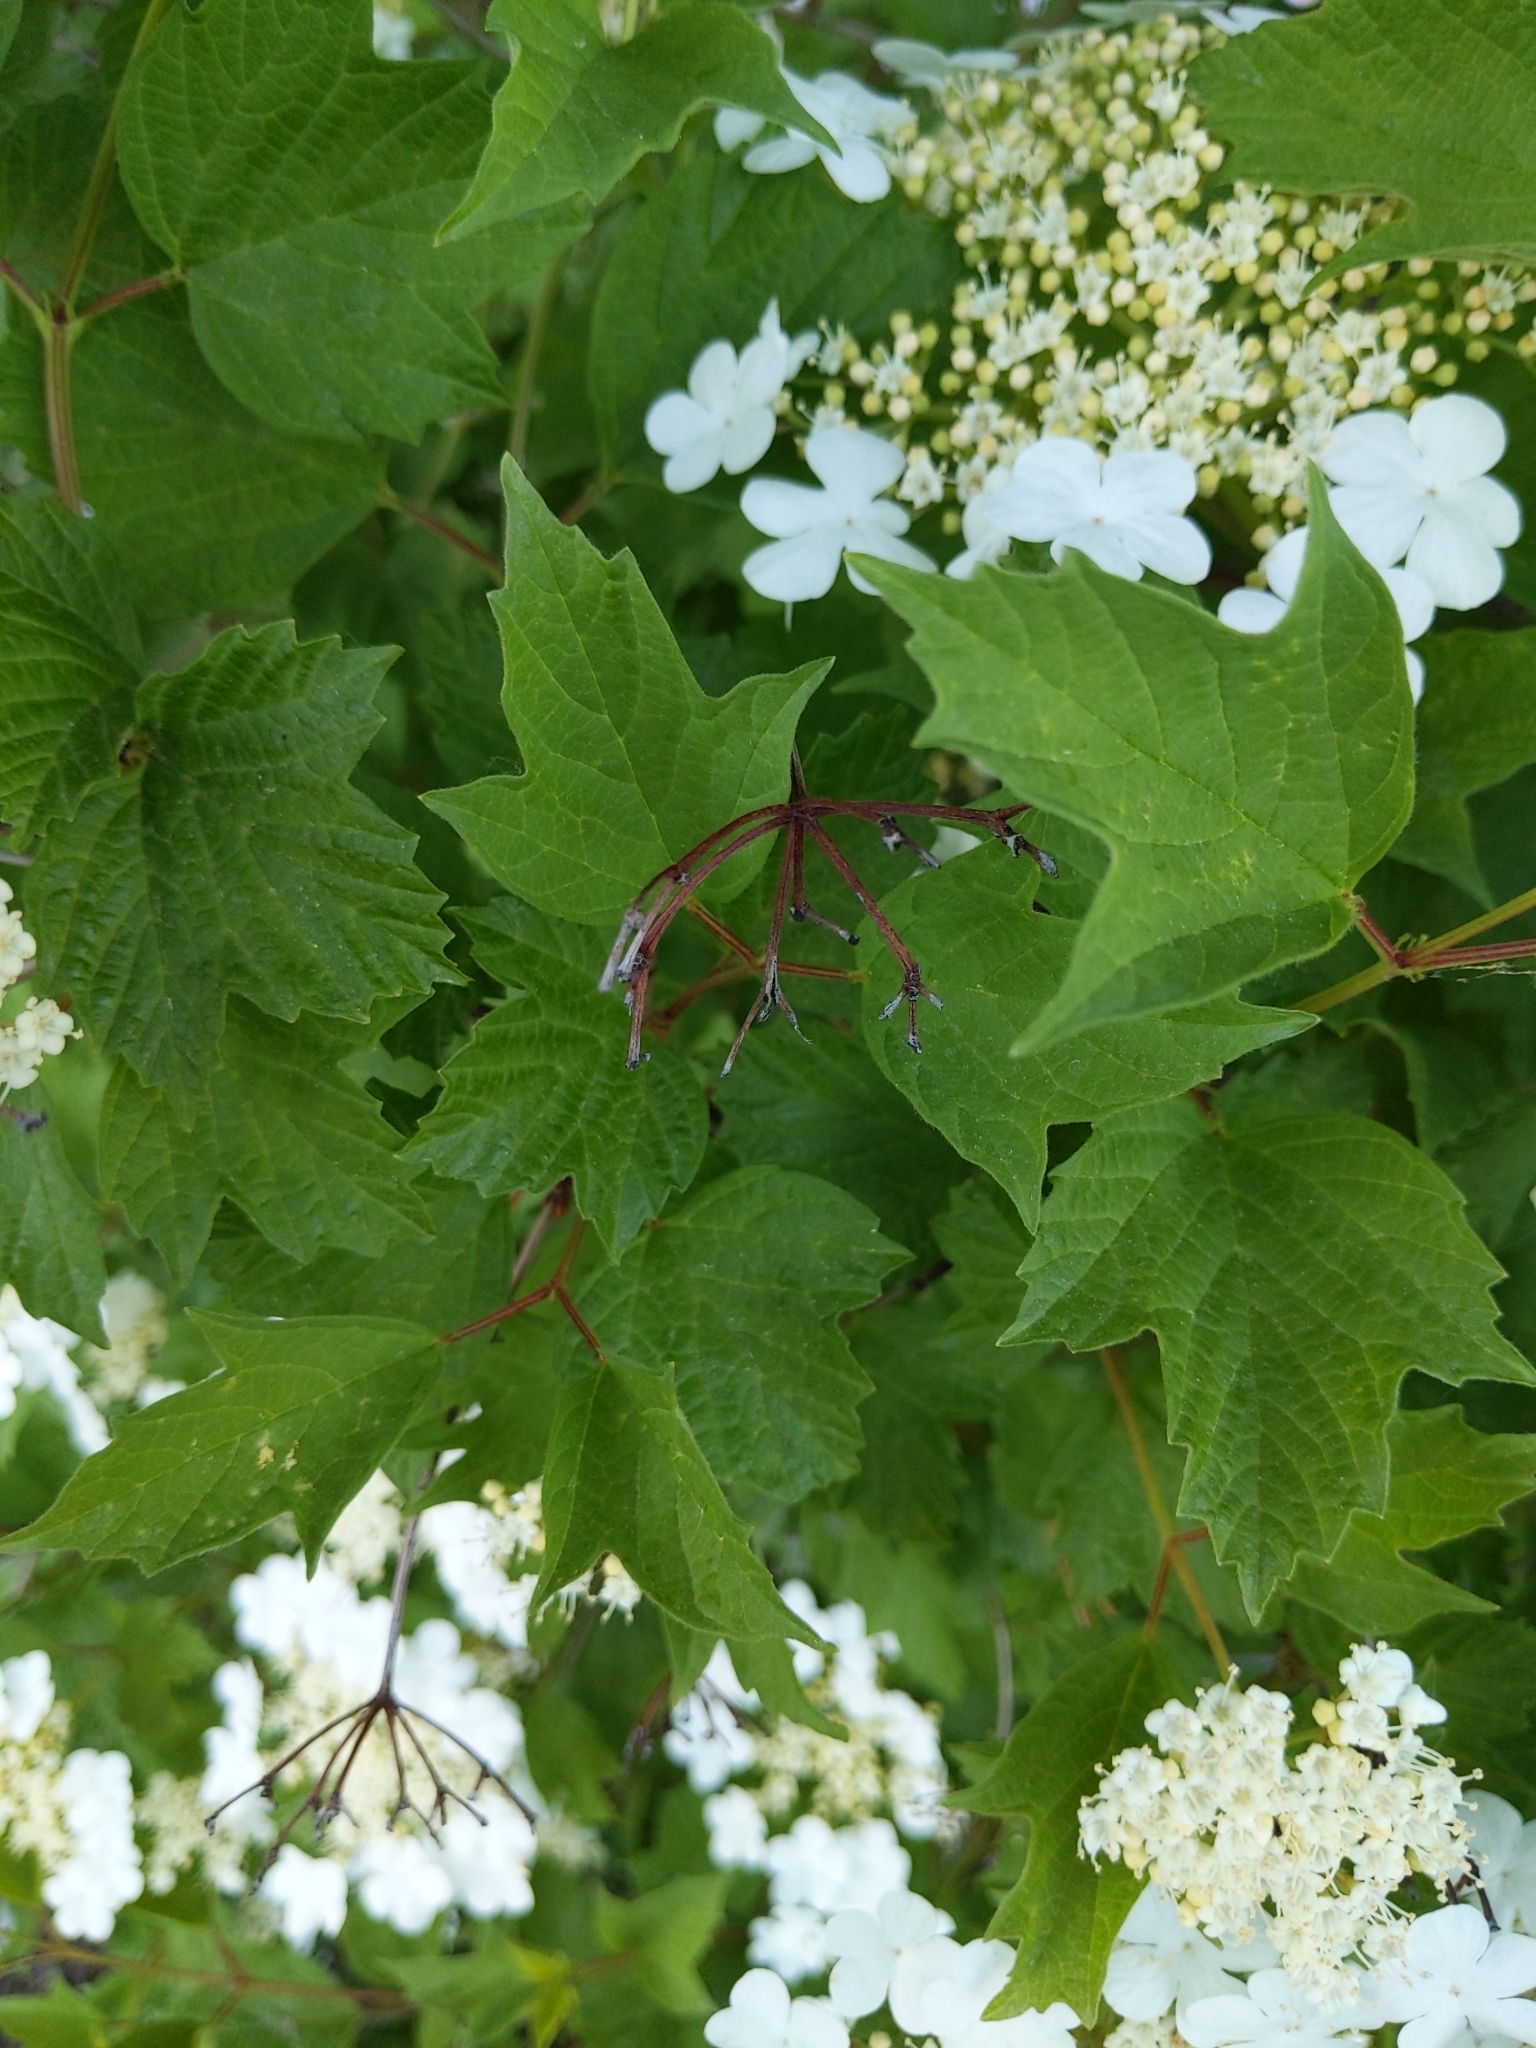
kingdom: Plantae
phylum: Tracheophyta
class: Magnoliopsida
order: Dipsacales
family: Viburnaceae
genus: Viburnum
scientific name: Viburnum opulus
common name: Guelder-rose
